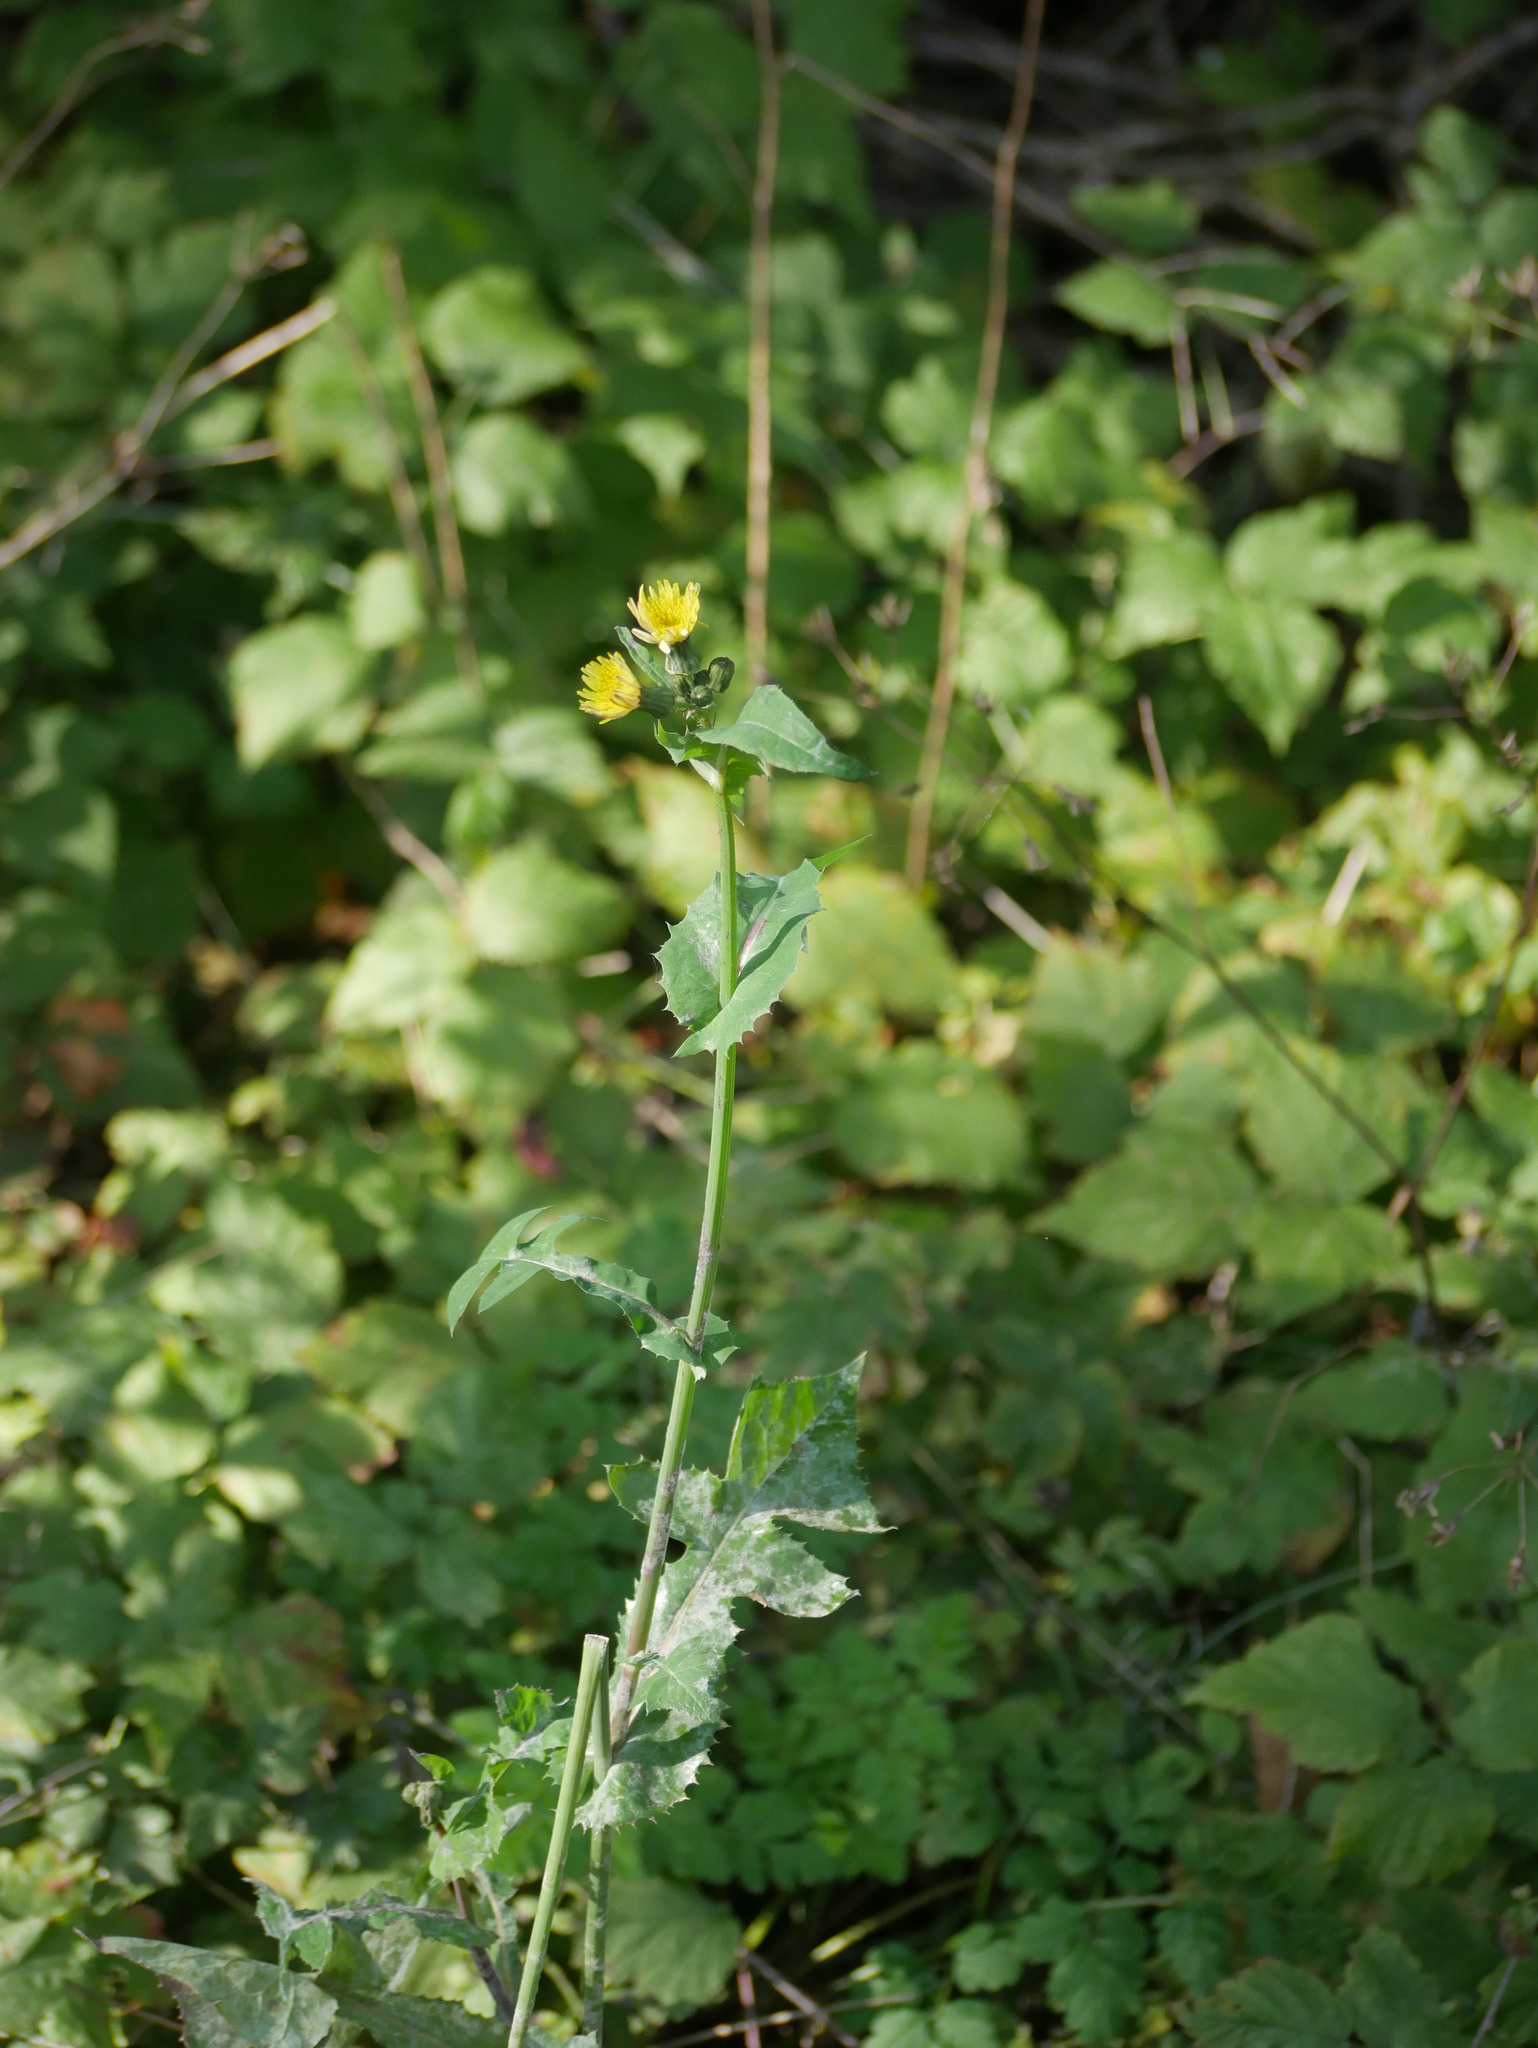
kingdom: Plantae
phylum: Tracheophyta
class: Magnoliopsida
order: Asterales
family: Asteraceae
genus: Sonchus
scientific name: Sonchus oleraceus
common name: Common sowthistle
